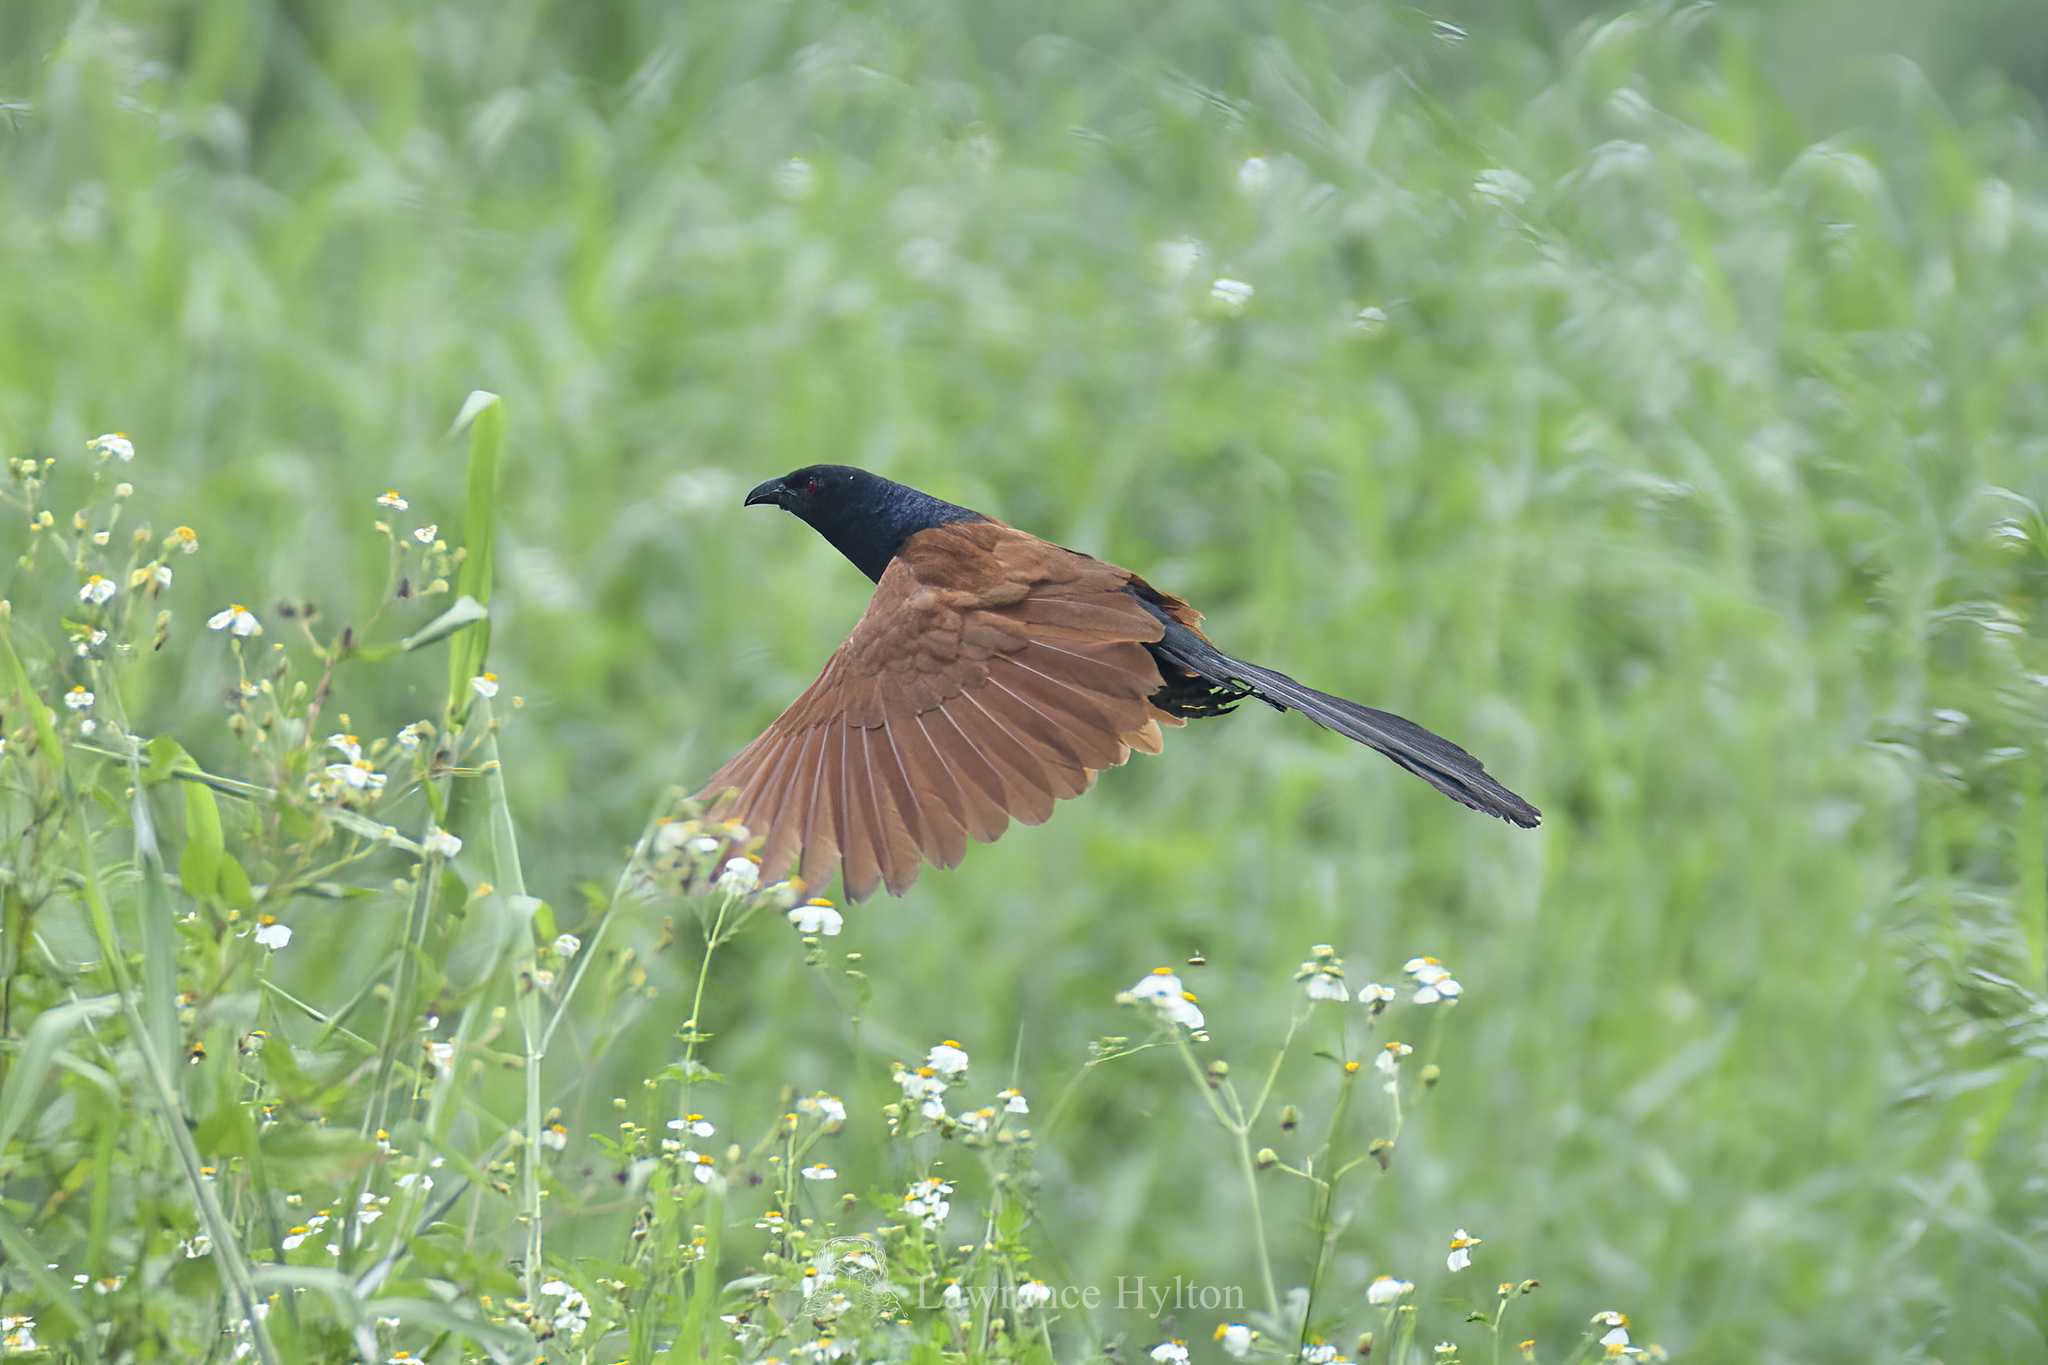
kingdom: Animalia
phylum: Chordata
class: Aves
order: Cuculiformes
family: Cuculidae
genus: Centropus
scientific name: Centropus sinensis
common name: Greater coucal
